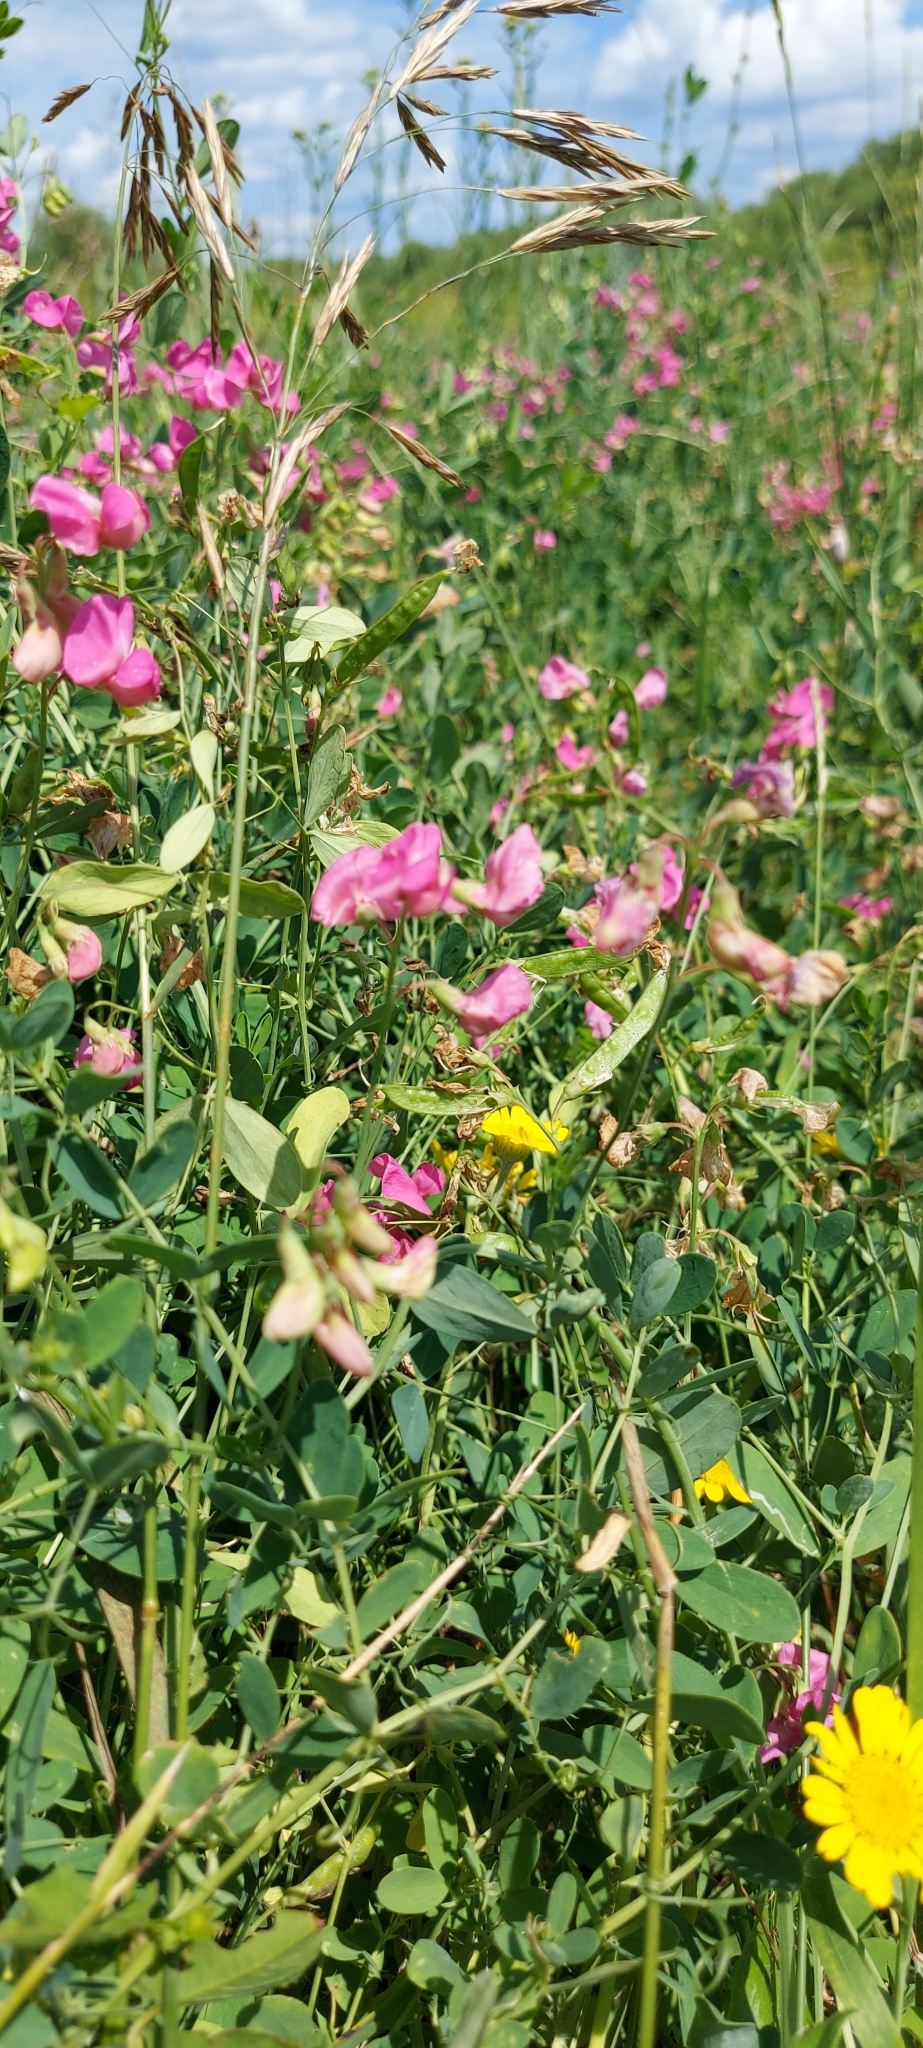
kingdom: Plantae
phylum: Tracheophyta
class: Magnoliopsida
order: Fabales
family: Fabaceae
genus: Lathyrus
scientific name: Lathyrus tuberosus
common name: Tuberous pea
